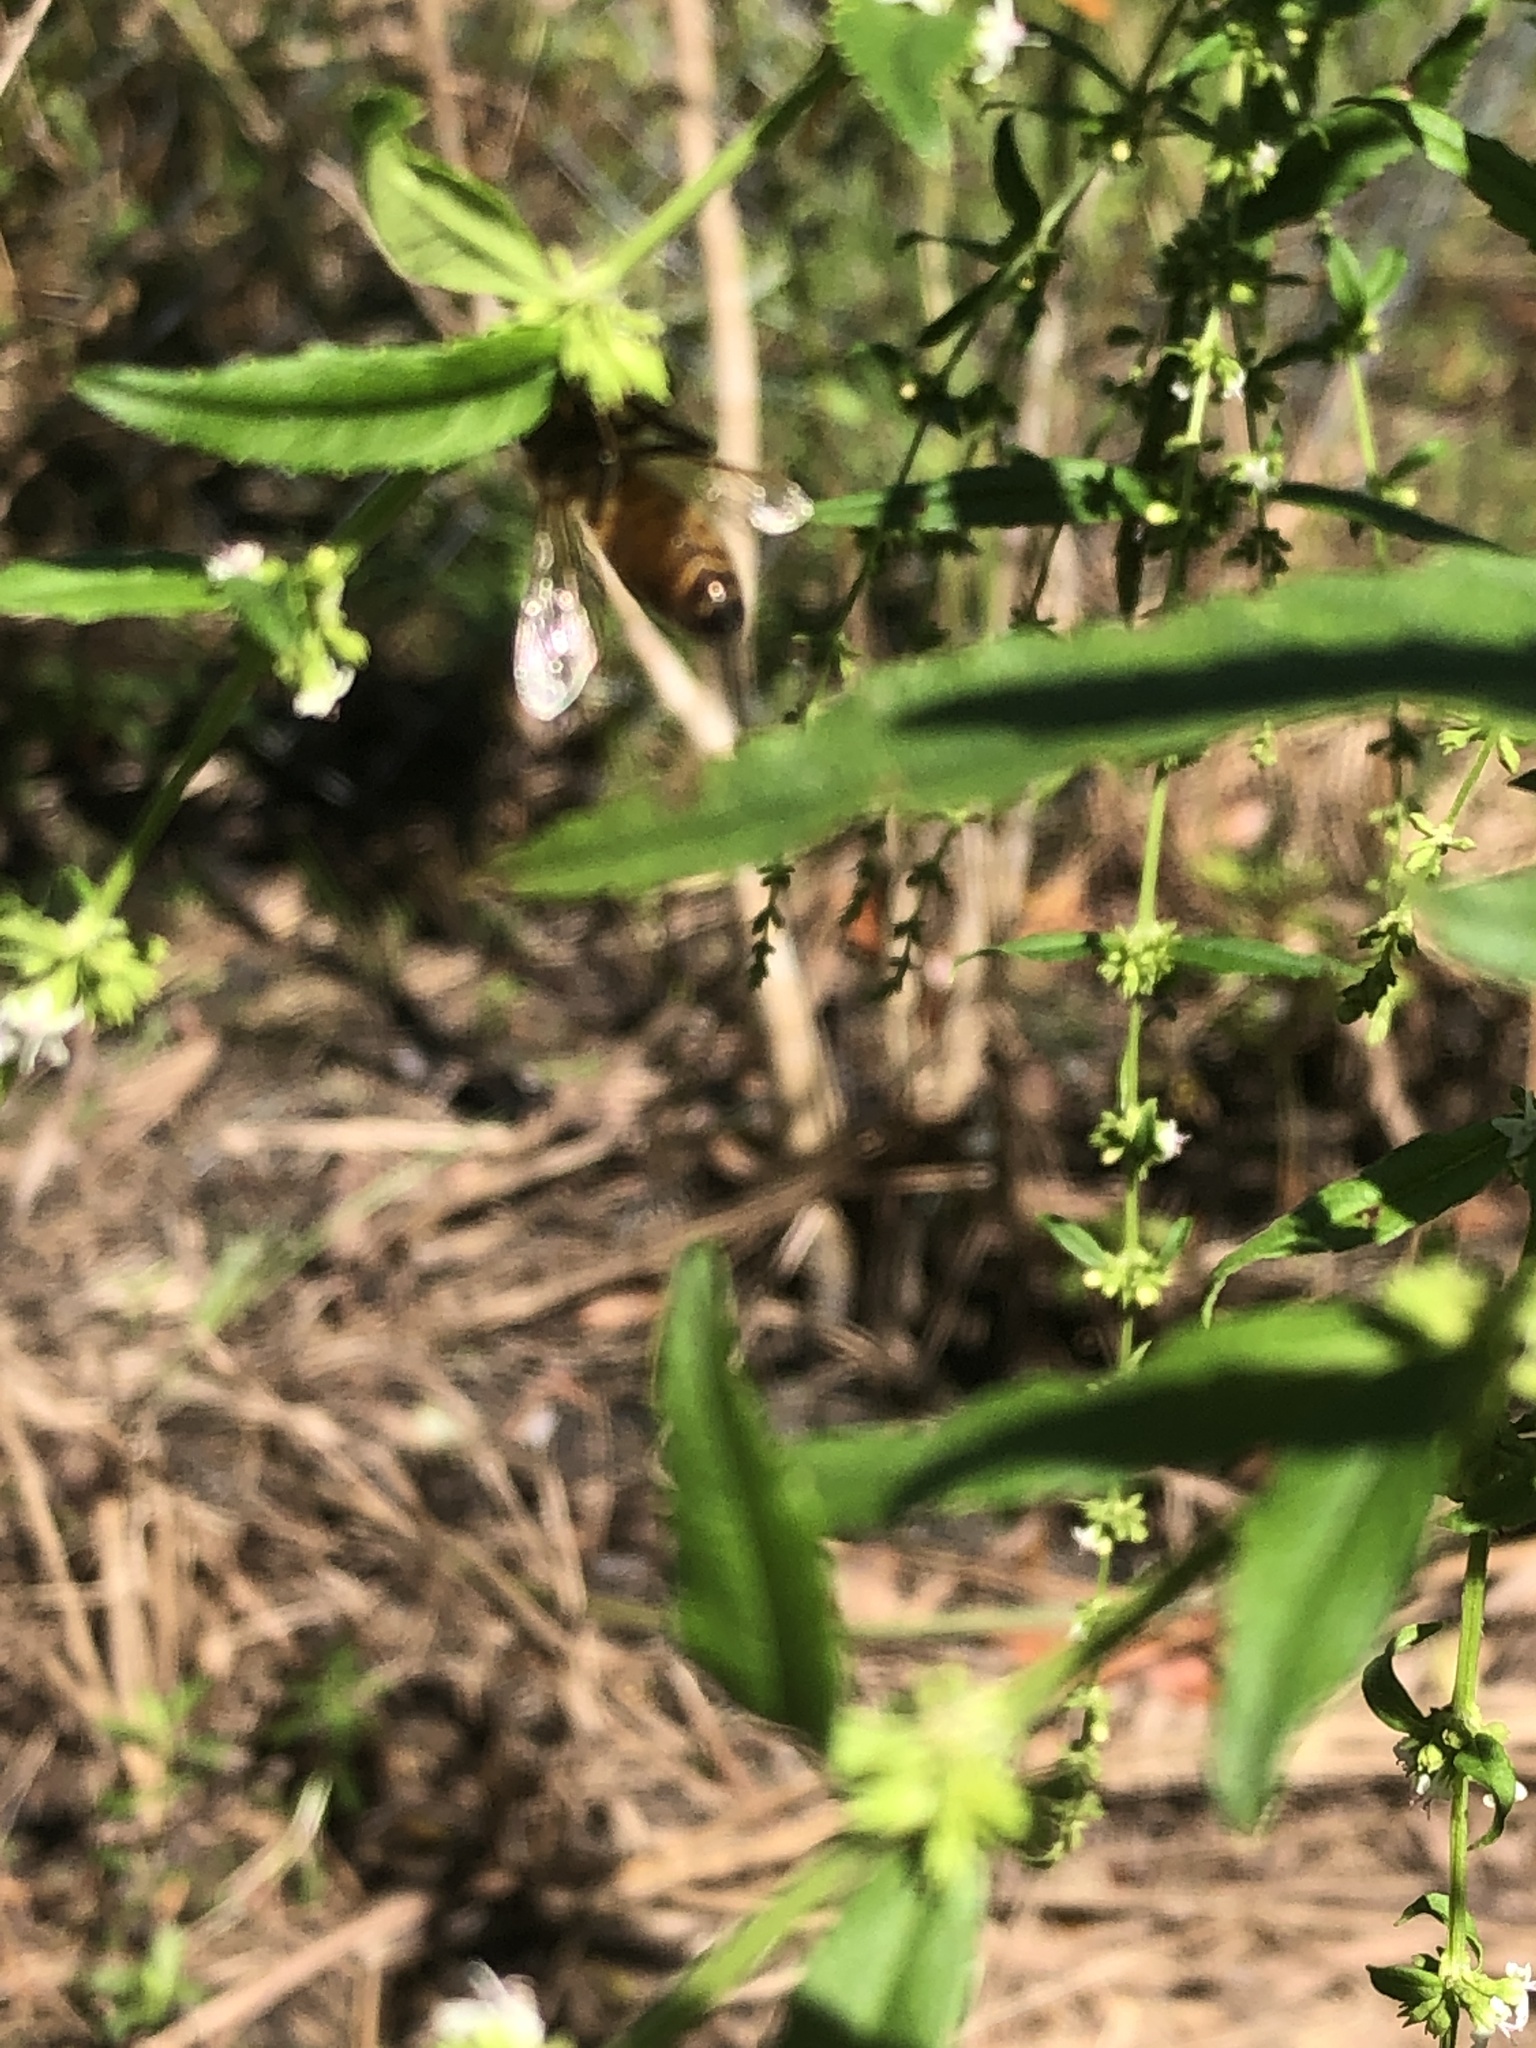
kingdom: Animalia
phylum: Arthropoda
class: Insecta
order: Hymenoptera
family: Apidae
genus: Apis
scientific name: Apis mellifera
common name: Honey bee
